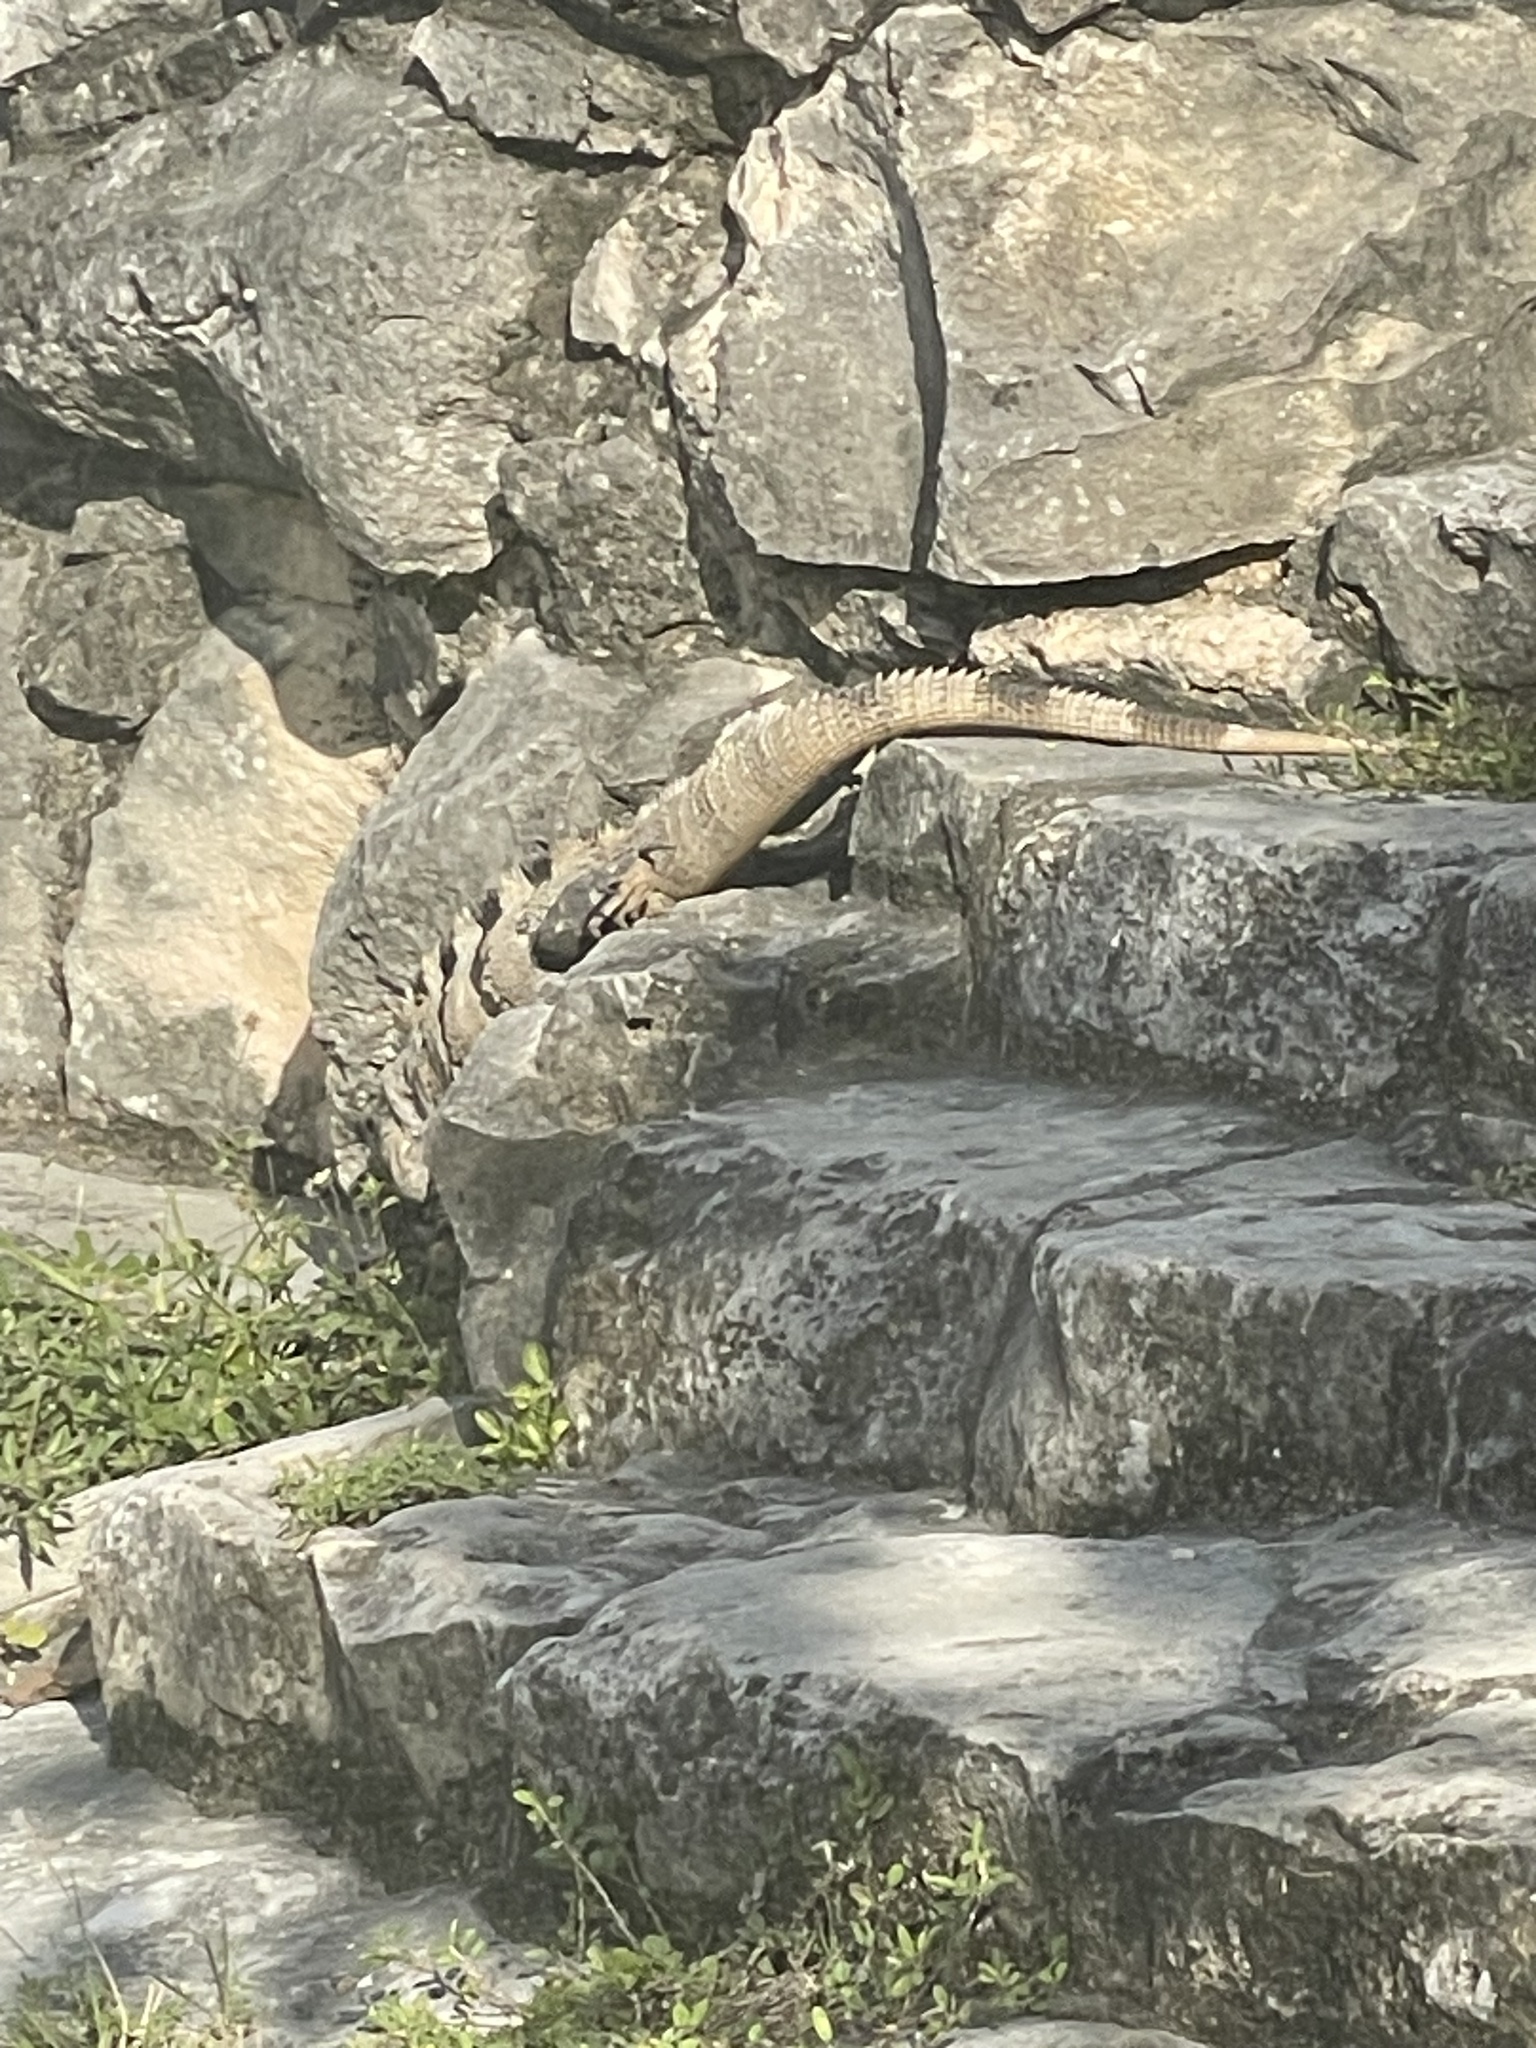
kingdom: Animalia
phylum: Chordata
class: Squamata
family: Iguanidae
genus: Ctenosaura
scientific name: Ctenosaura similis
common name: Black spiny-tailed iguana
